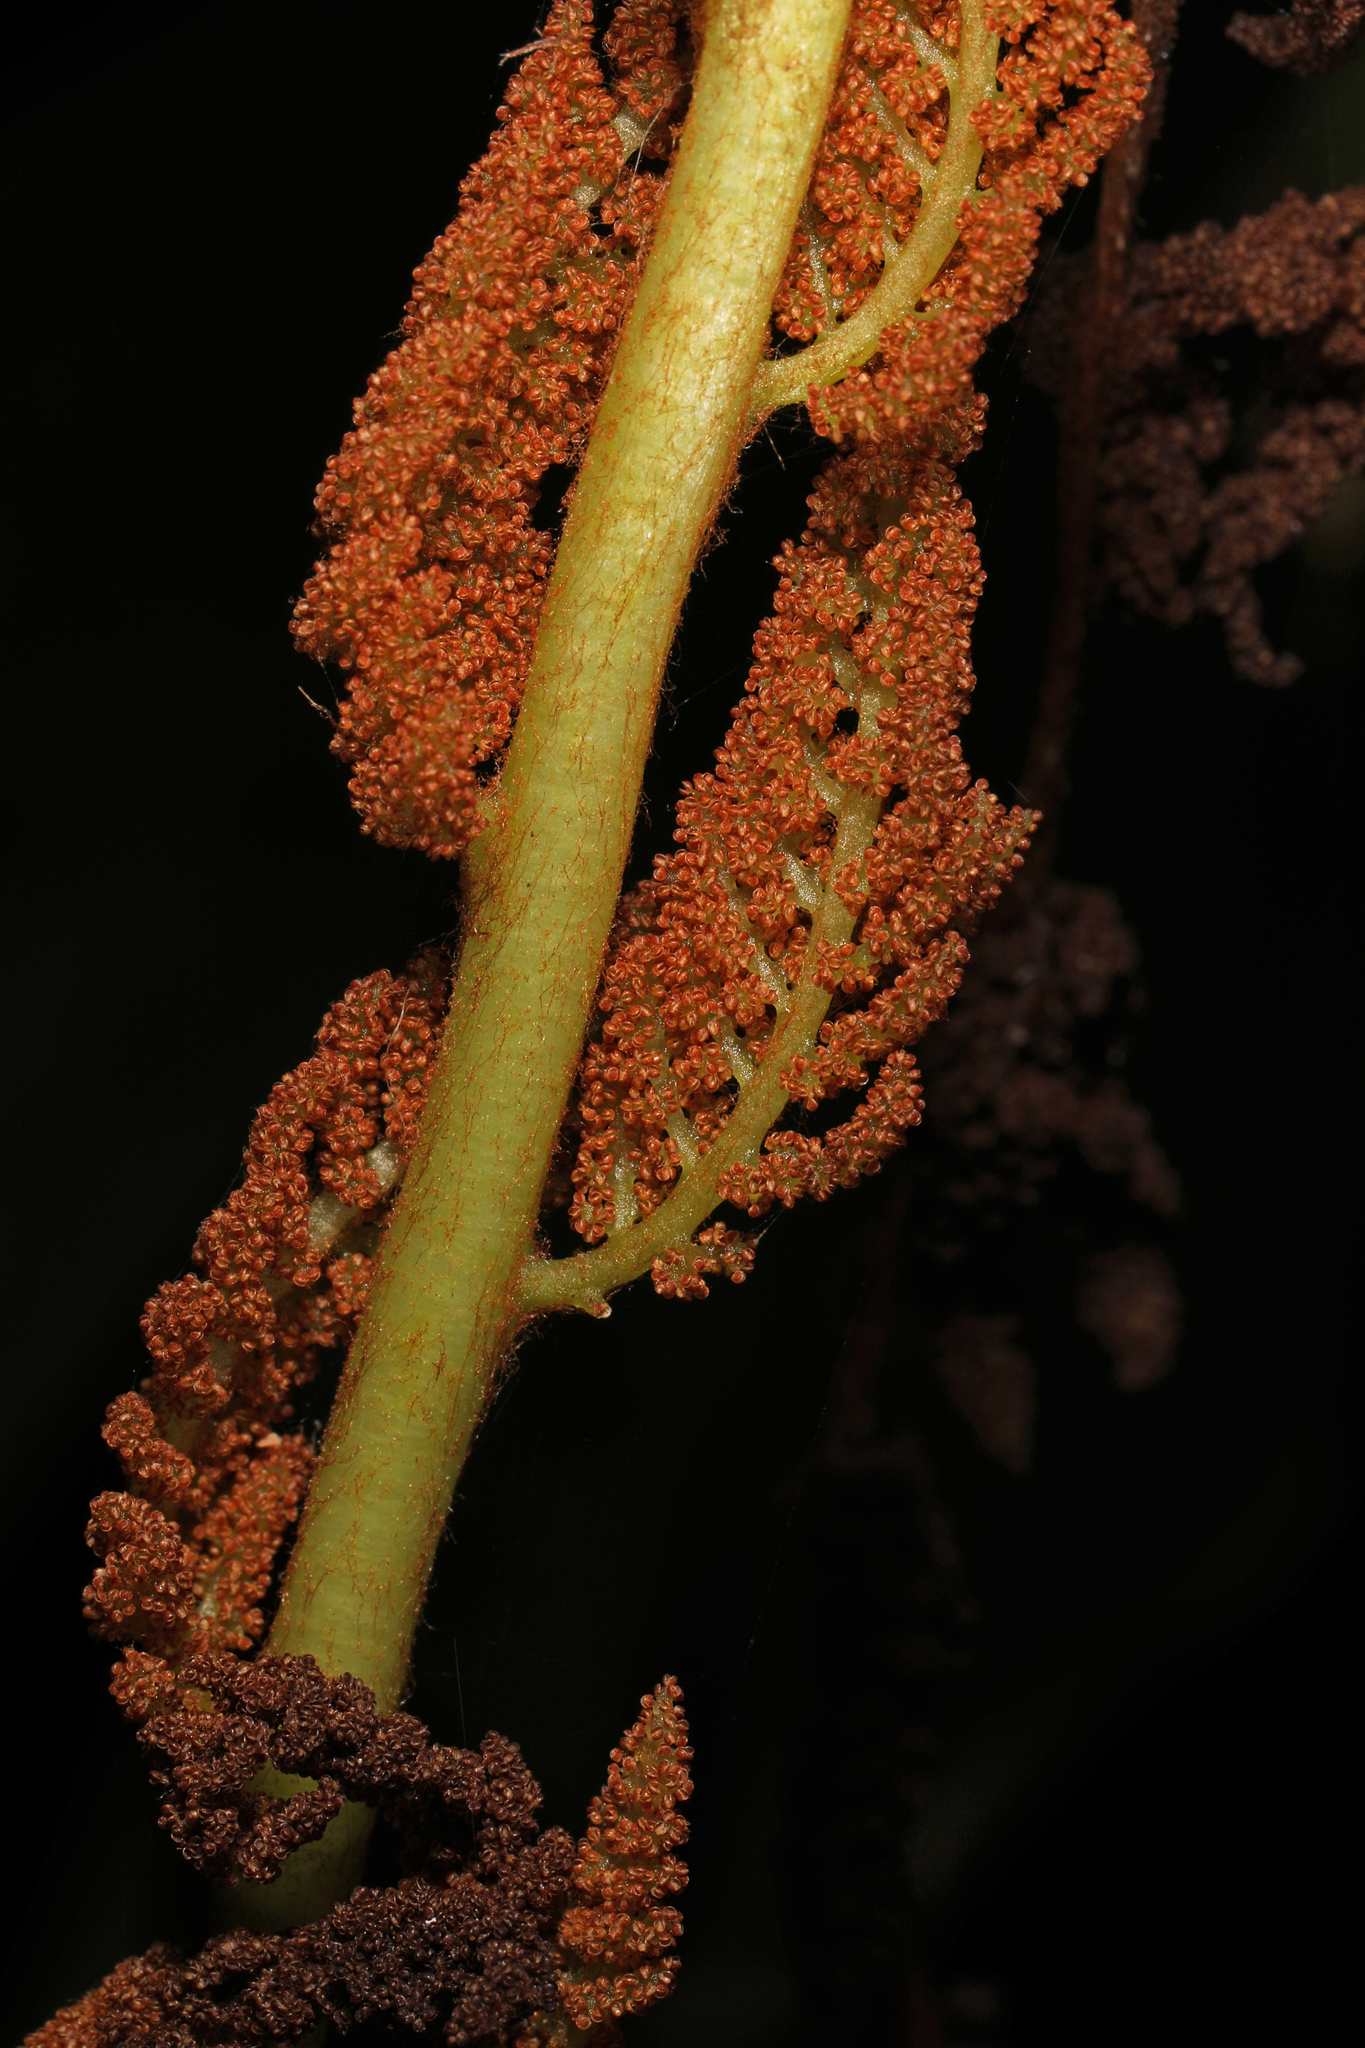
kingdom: Plantae
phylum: Tracheophyta
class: Polypodiopsida
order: Osmundales
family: Osmundaceae
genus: Osmundastrum
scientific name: Osmundastrum cinnamomeum
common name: Cinnamon fern
